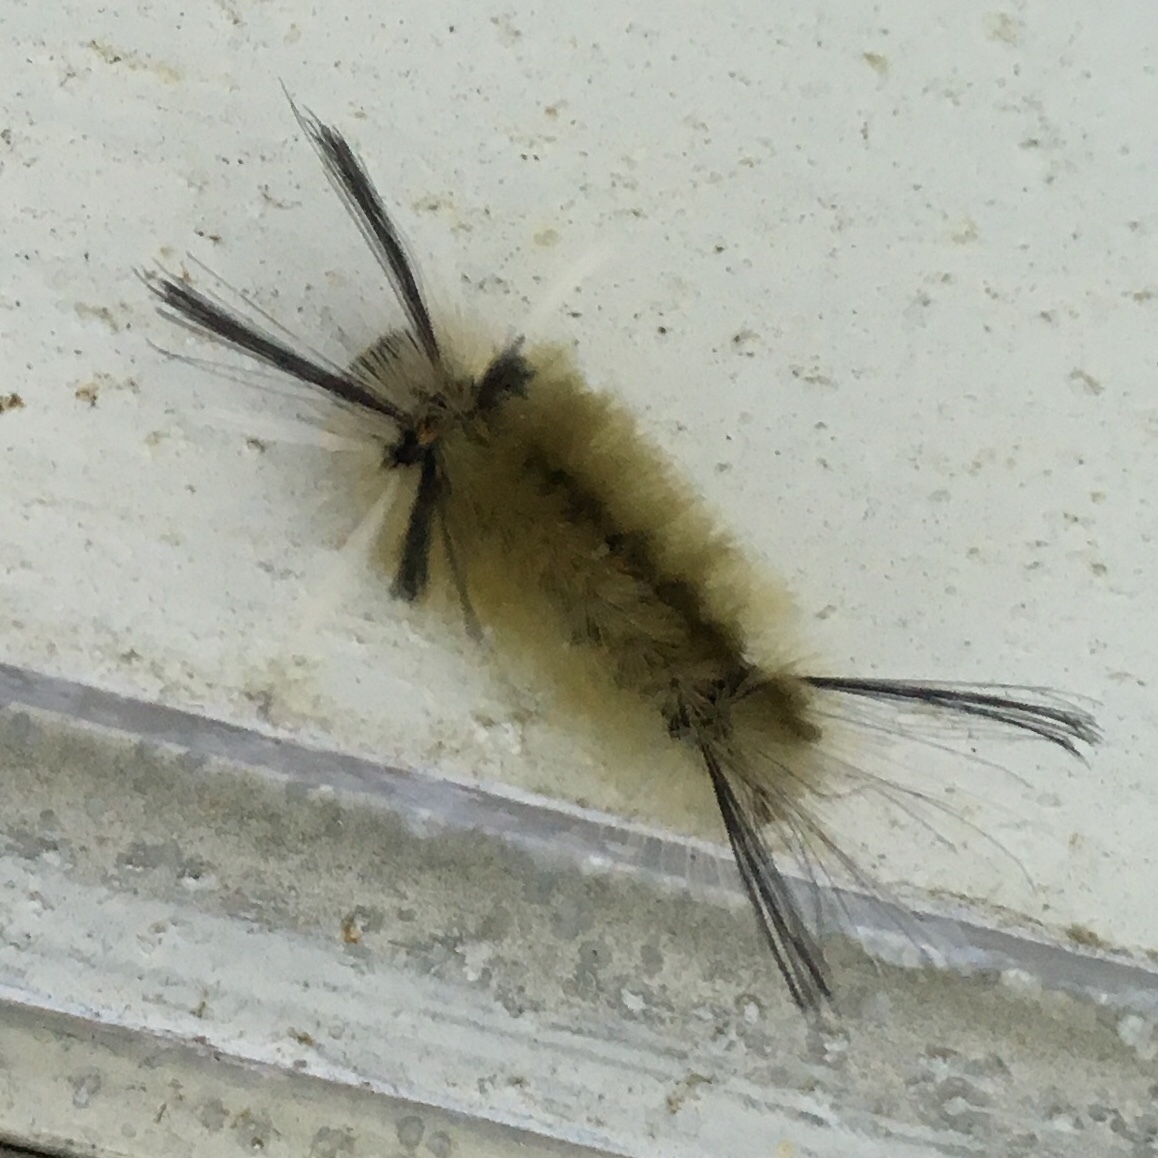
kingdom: Animalia
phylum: Arthropoda
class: Insecta
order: Lepidoptera
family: Erebidae
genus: Halysidota
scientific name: Halysidota tessellaris
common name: Banded tussock moth
